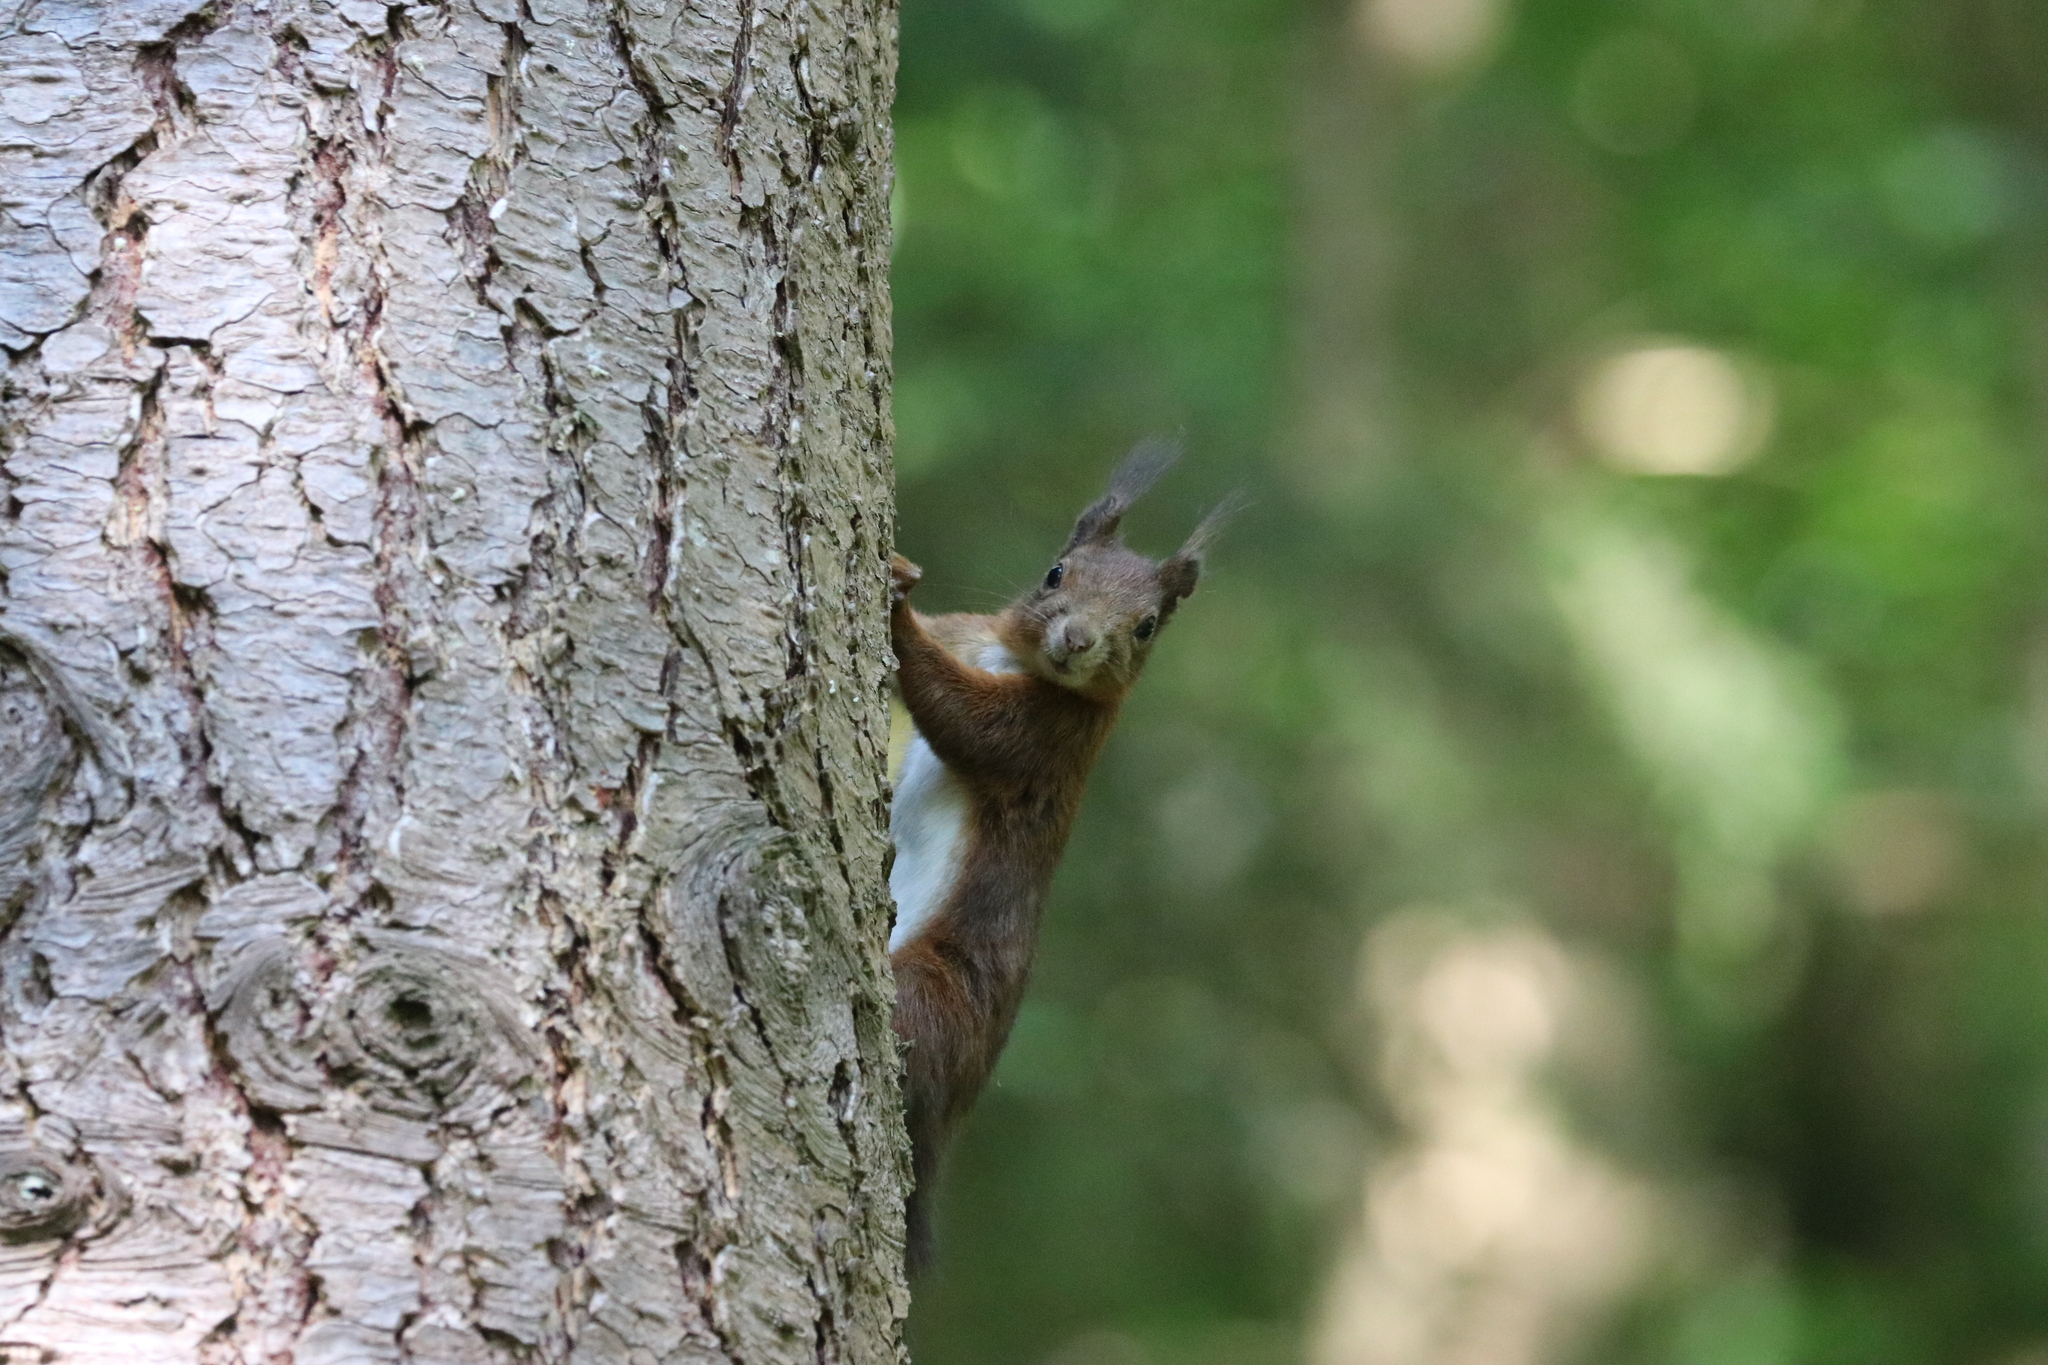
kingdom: Animalia
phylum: Chordata
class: Mammalia
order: Rodentia
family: Sciuridae
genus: Sciurus
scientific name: Sciurus vulgaris
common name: Eurasian red squirrel
